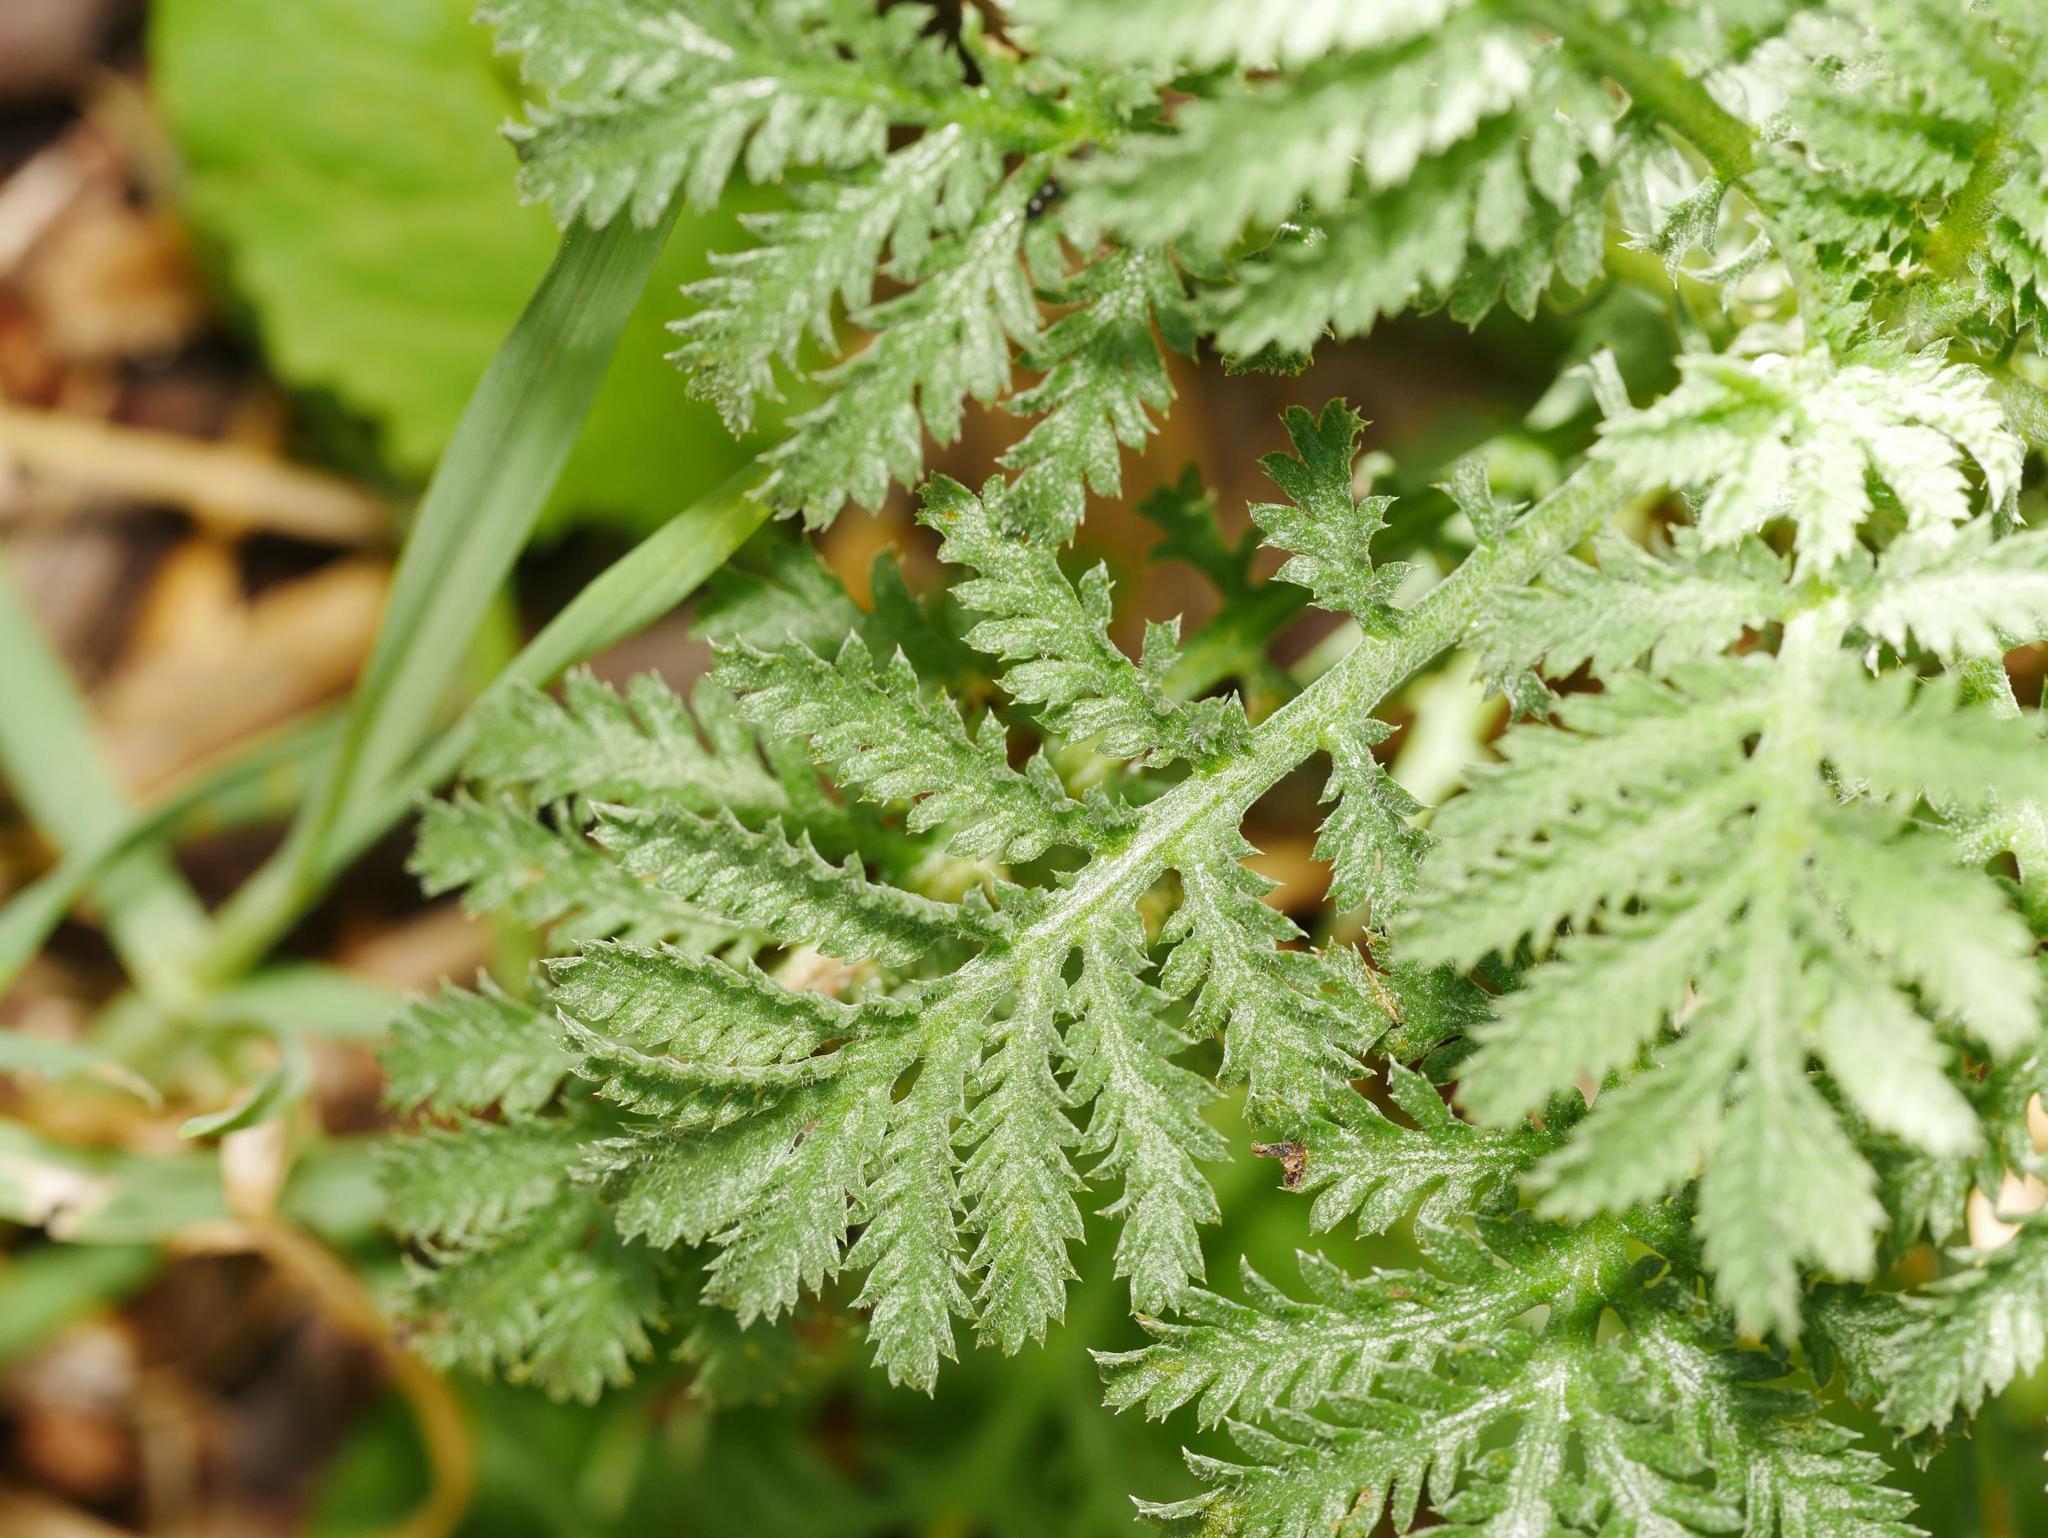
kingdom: Plantae
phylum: Tracheophyta
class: Magnoliopsida
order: Asterales
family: Asteraceae
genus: Tanacetum
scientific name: Tanacetum vulgare
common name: Common tansy
